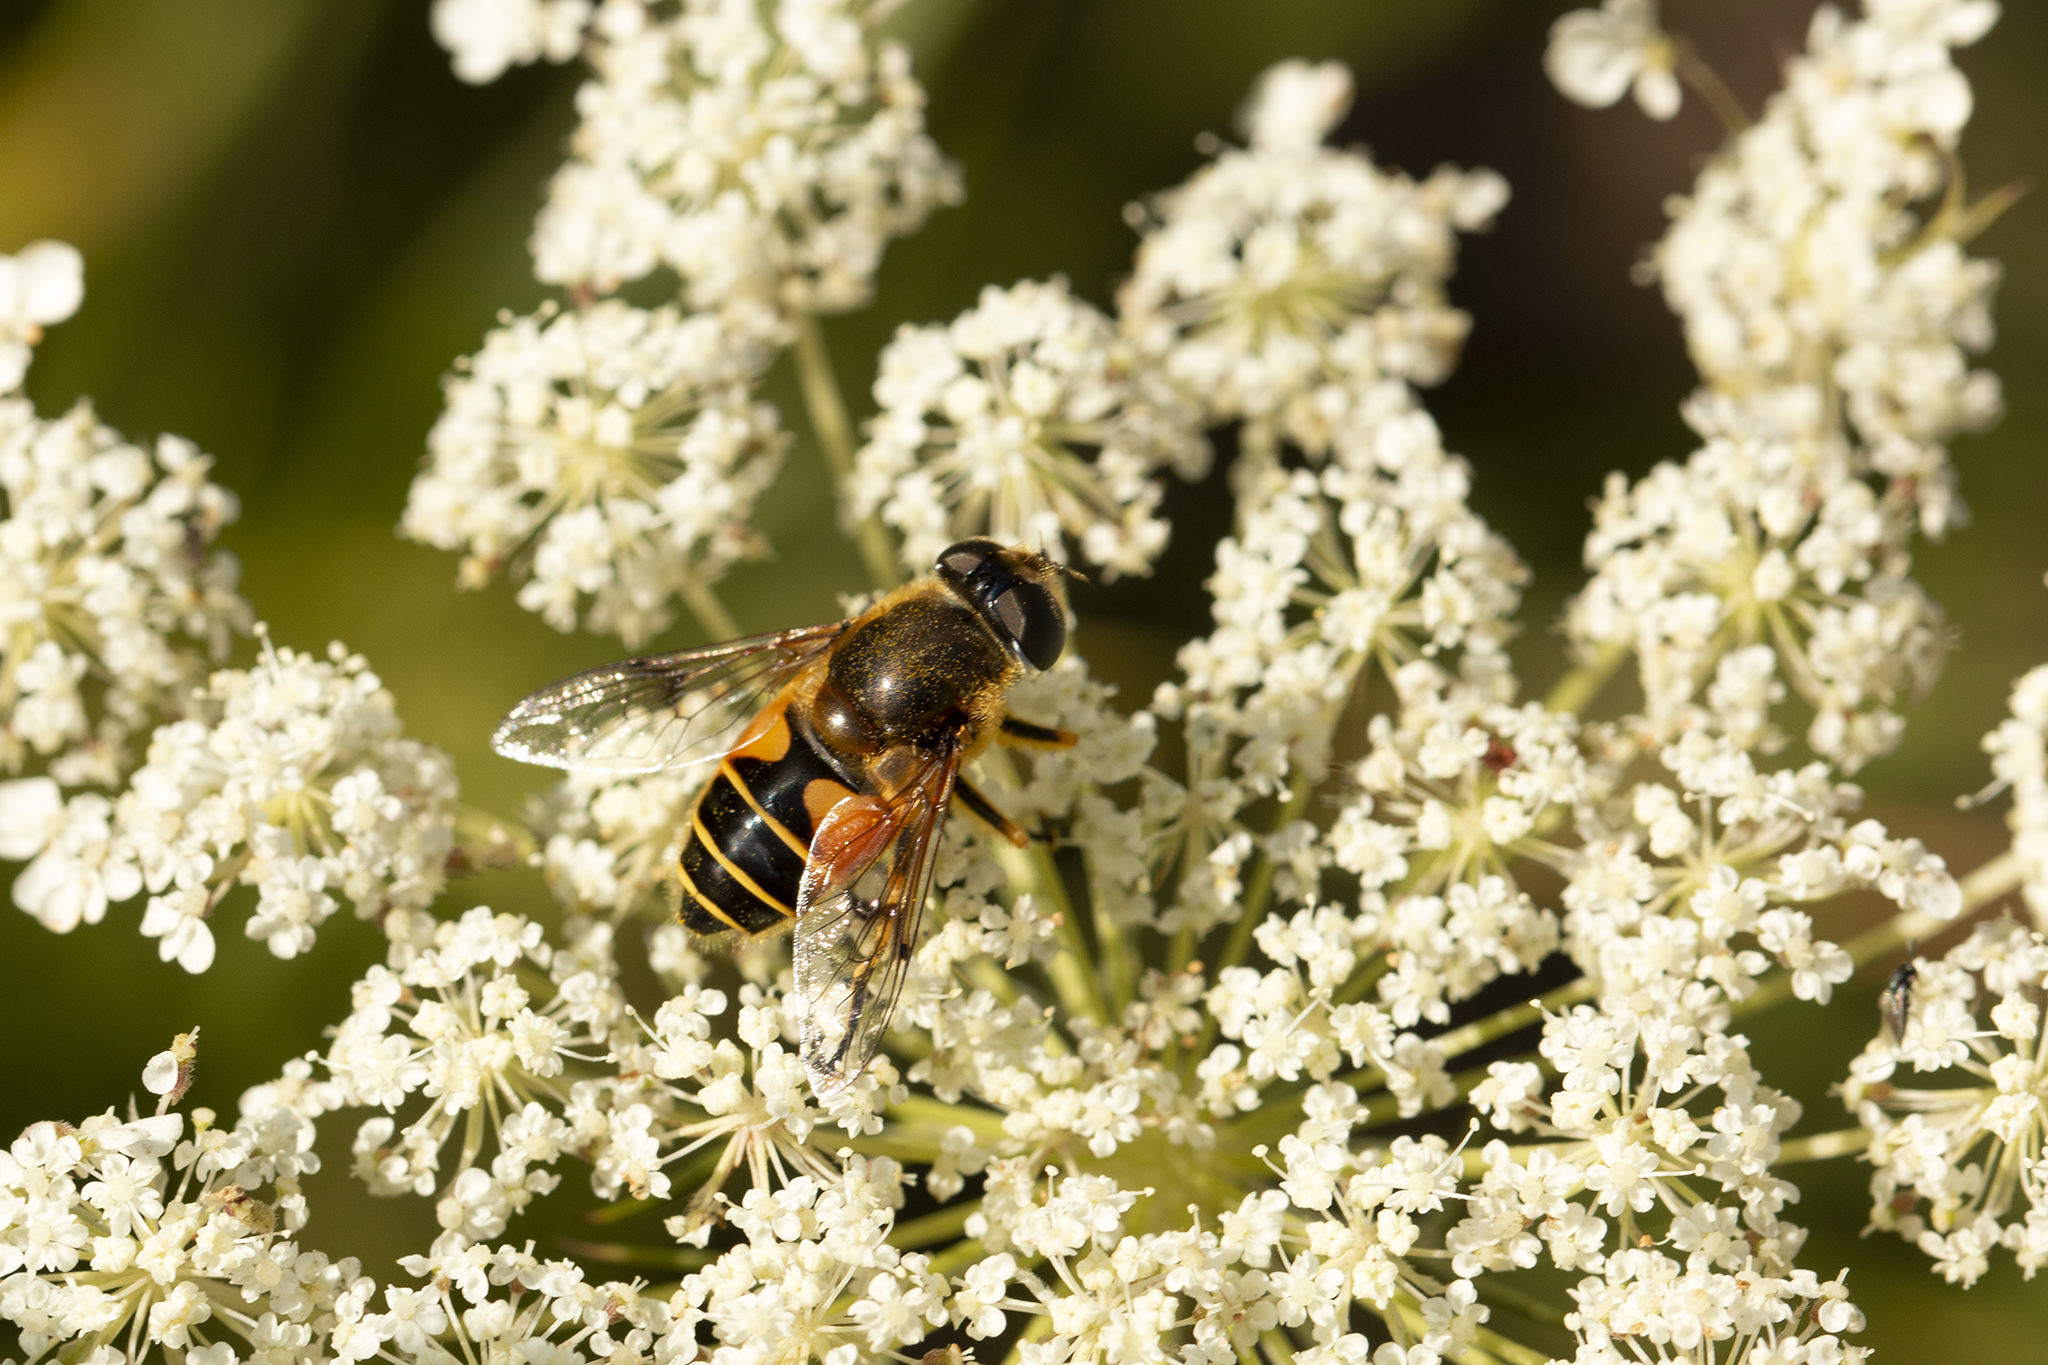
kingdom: Animalia
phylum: Arthropoda
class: Insecta
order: Diptera
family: Syrphidae
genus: Cheilosia
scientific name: Cheilosia morio
